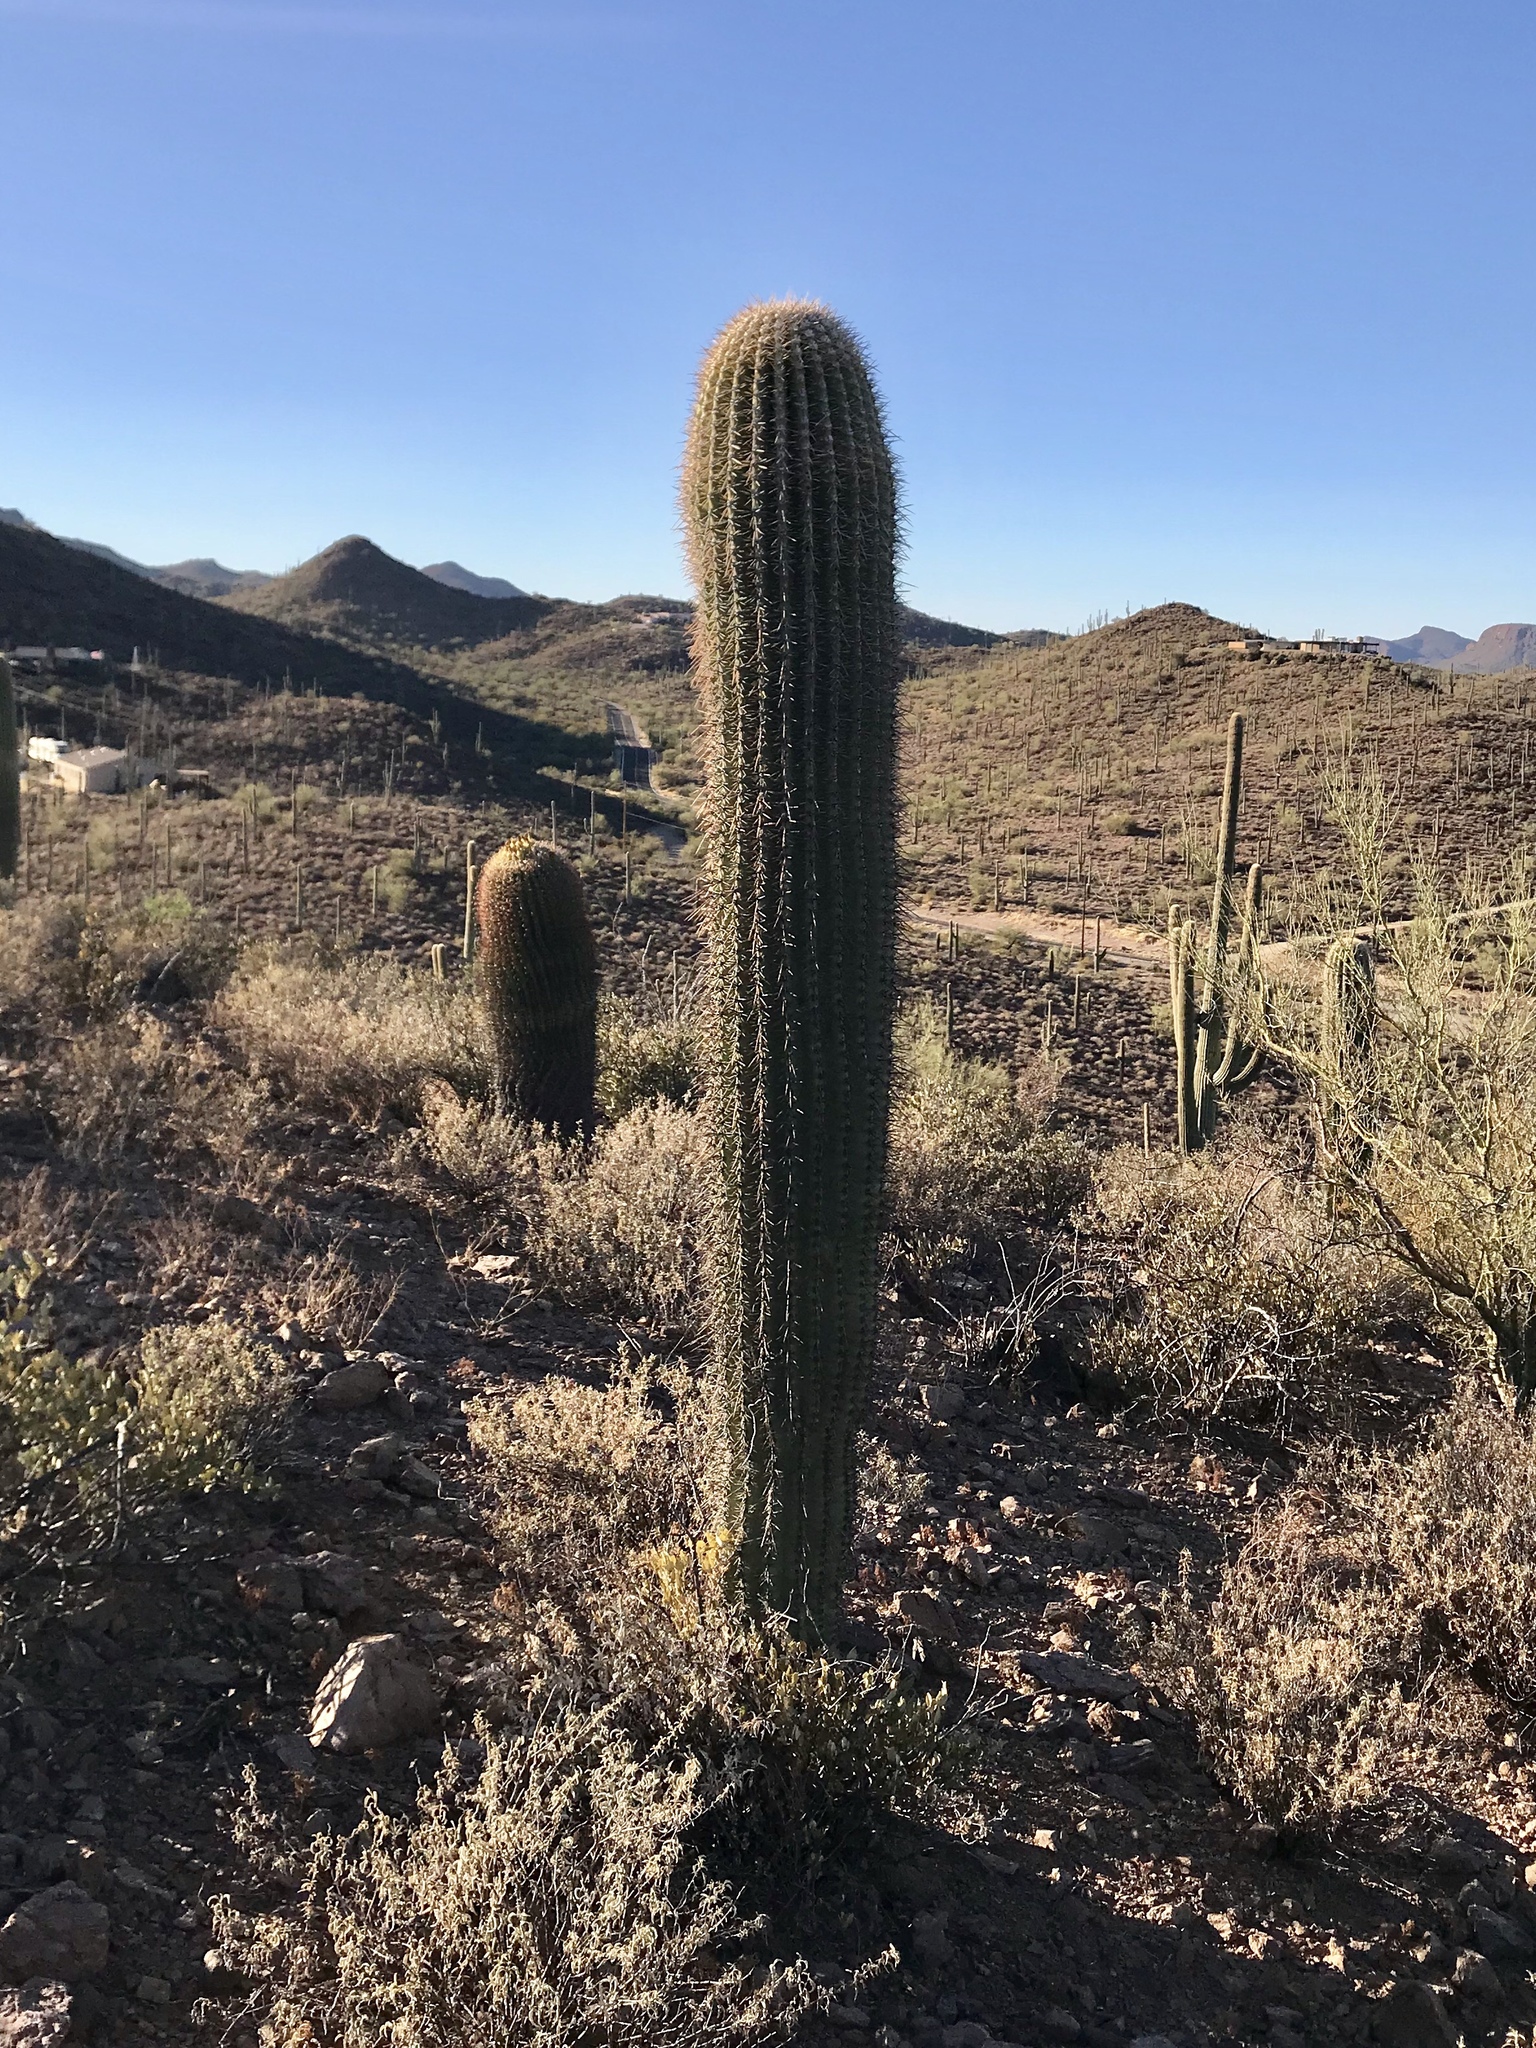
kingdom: Plantae
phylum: Tracheophyta
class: Magnoliopsida
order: Caryophyllales
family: Cactaceae
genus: Carnegiea
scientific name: Carnegiea gigantea
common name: Saguaro
